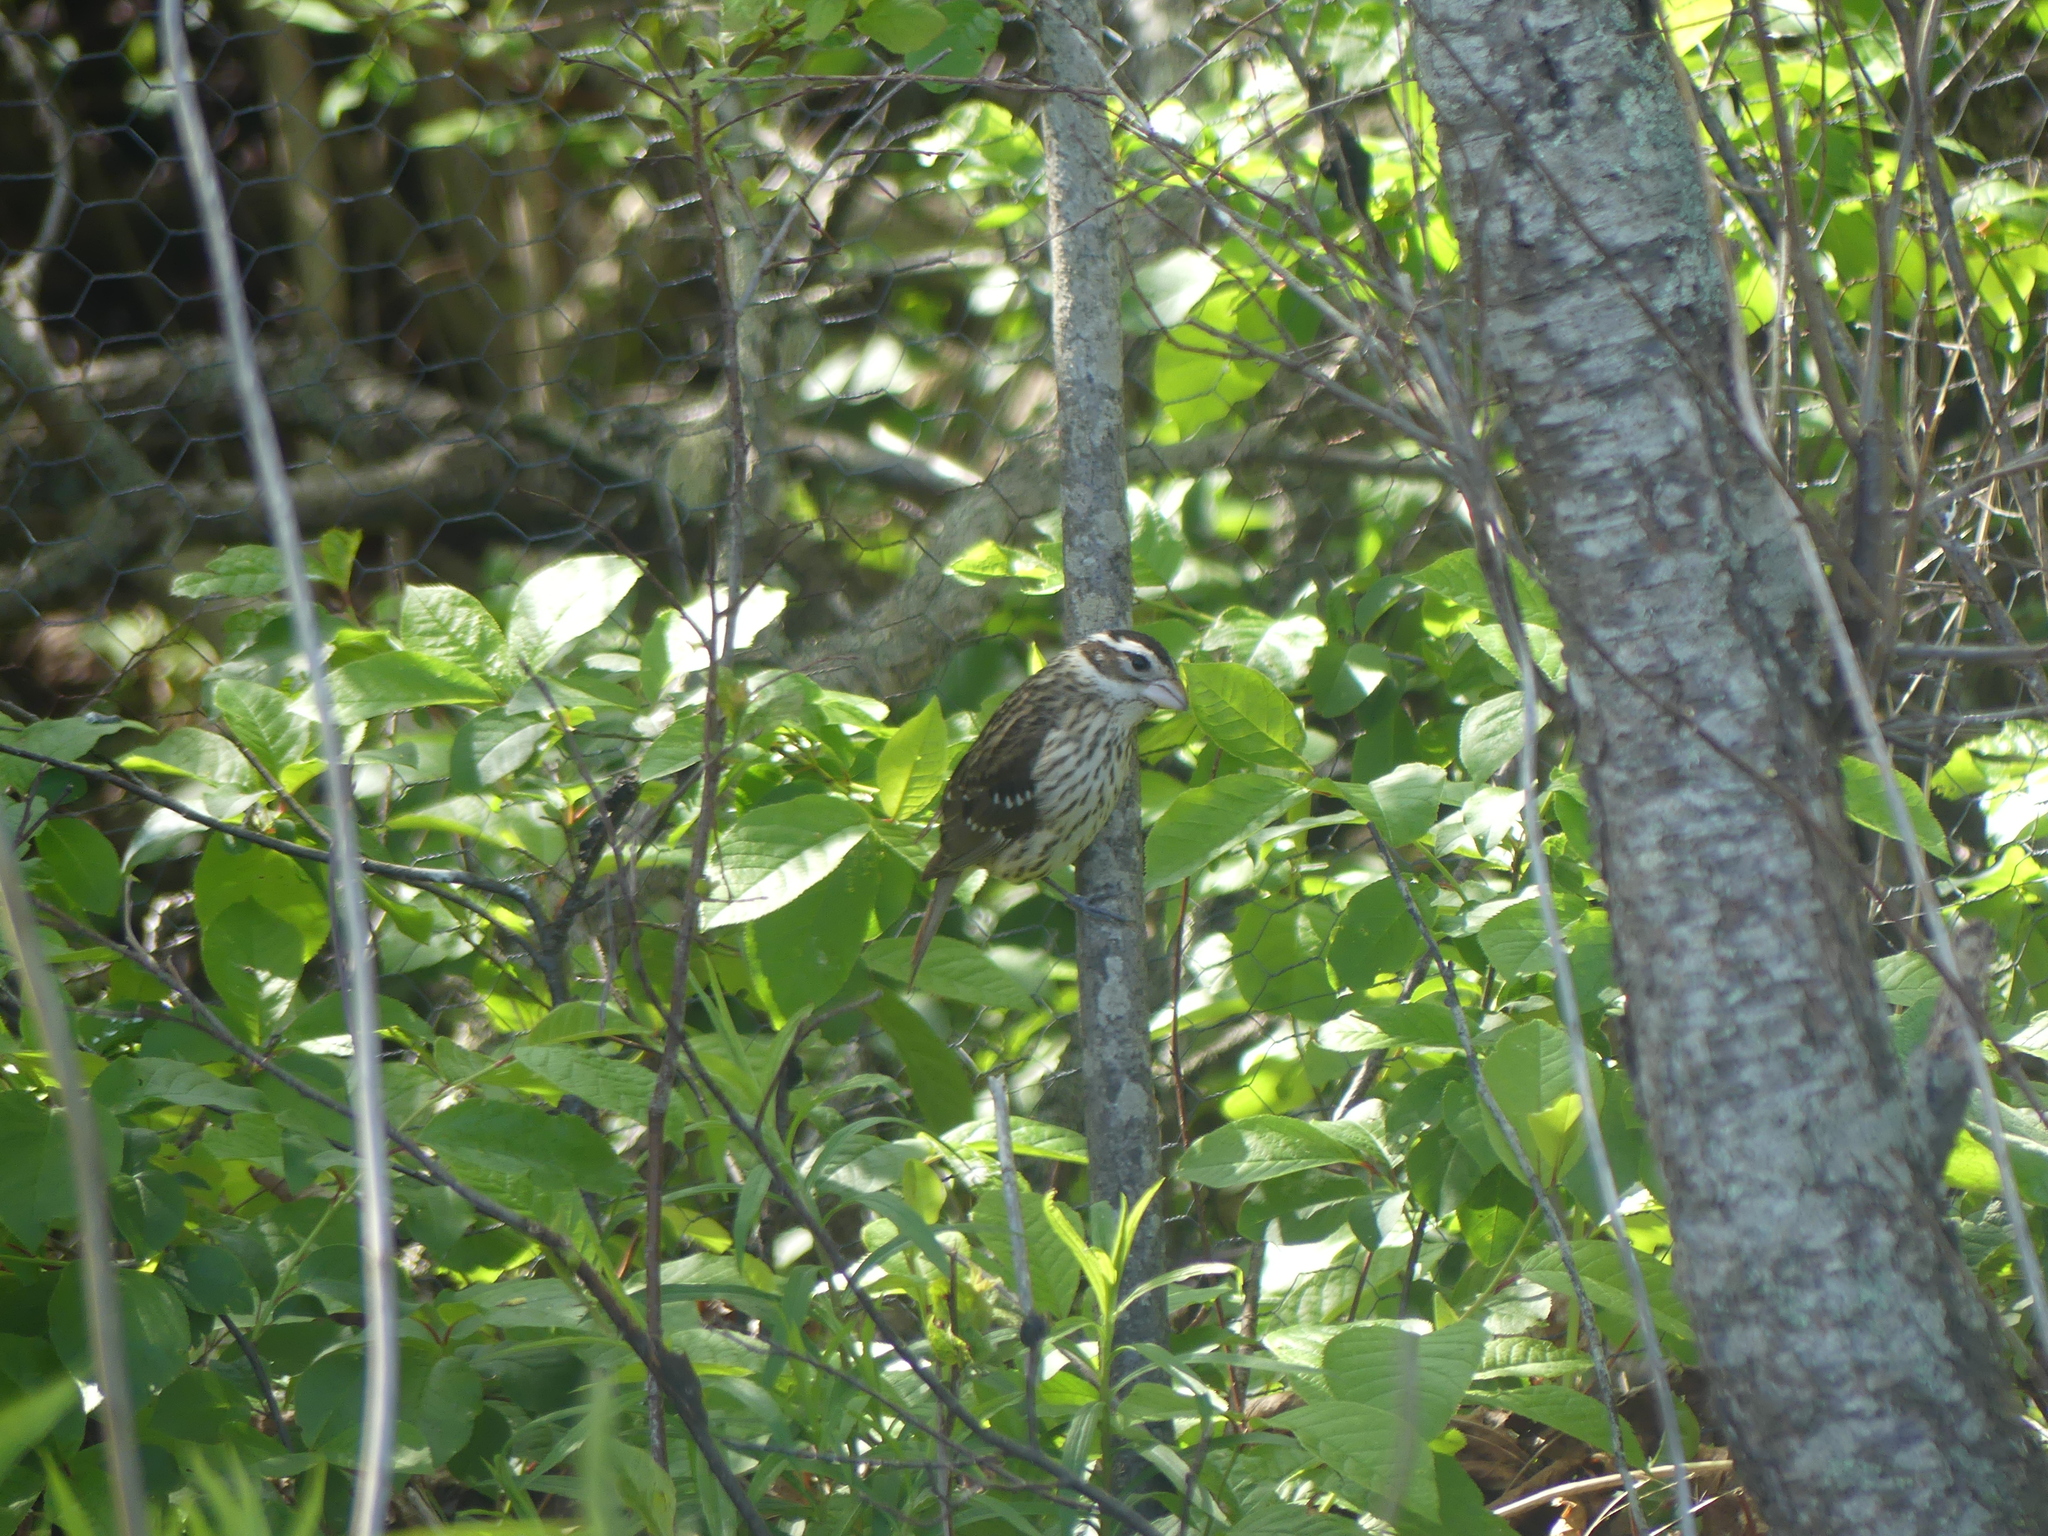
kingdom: Animalia
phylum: Chordata
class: Aves
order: Passeriformes
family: Cardinalidae
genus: Pheucticus
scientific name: Pheucticus ludovicianus
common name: Rose-breasted grosbeak
